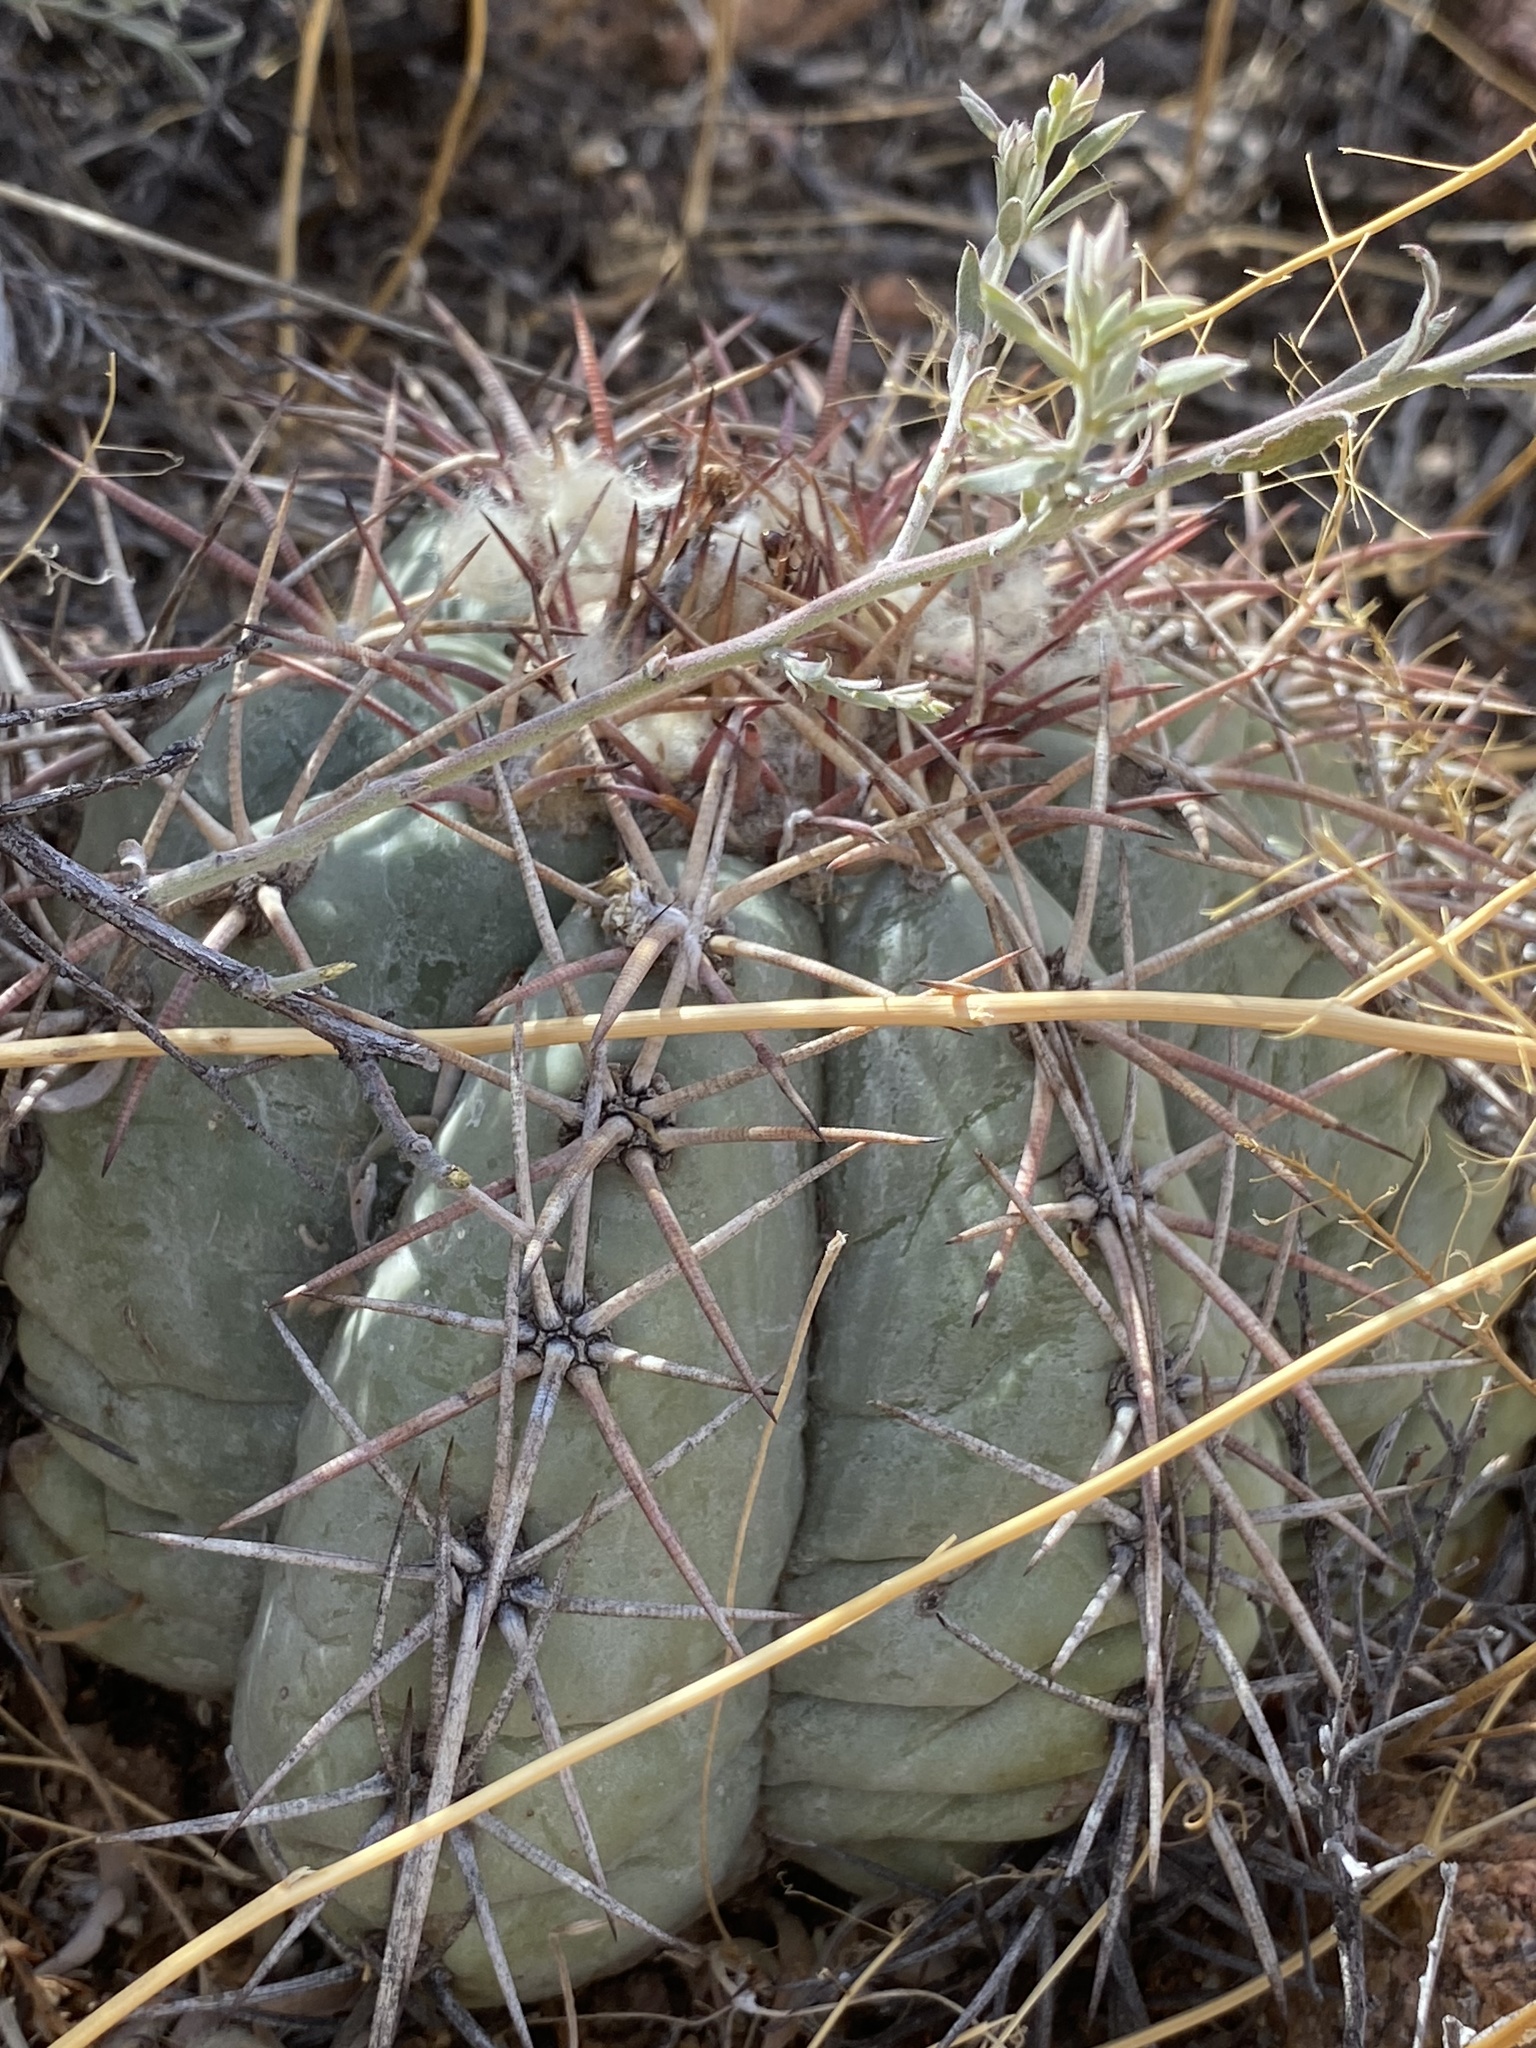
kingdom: Plantae
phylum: Tracheophyta
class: Magnoliopsida
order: Caryophyllales
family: Cactaceae
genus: Echinocactus
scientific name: Echinocactus horizonthalonius
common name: Devilshead
